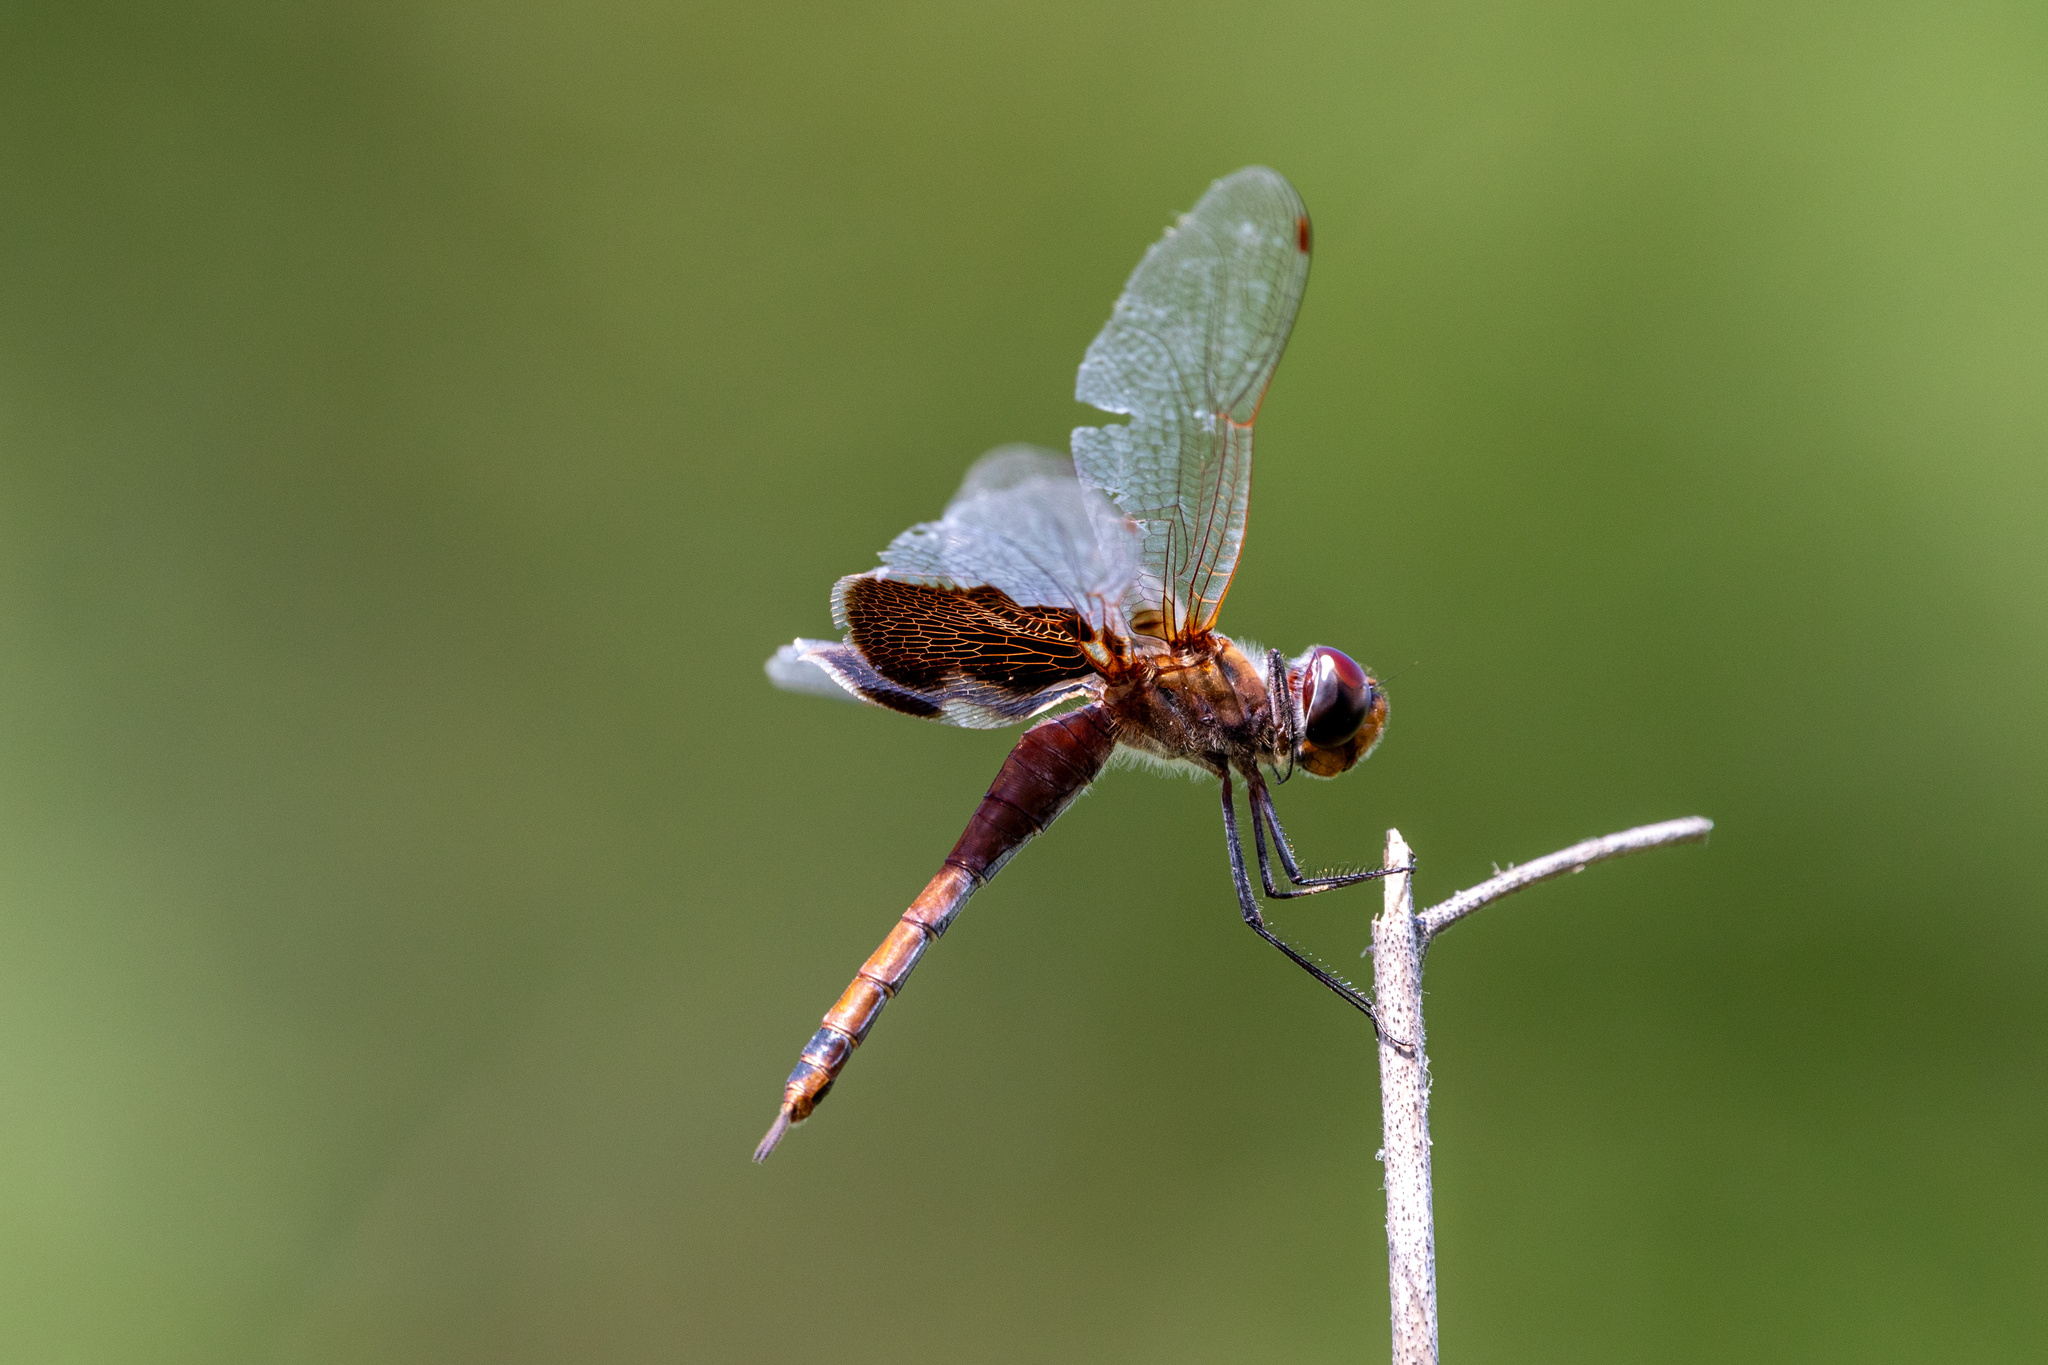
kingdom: Animalia
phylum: Arthropoda
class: Insecta
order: Odonata
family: Libellulidae
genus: Tramea
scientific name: Tramea carolina
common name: Carolina saddlebags
